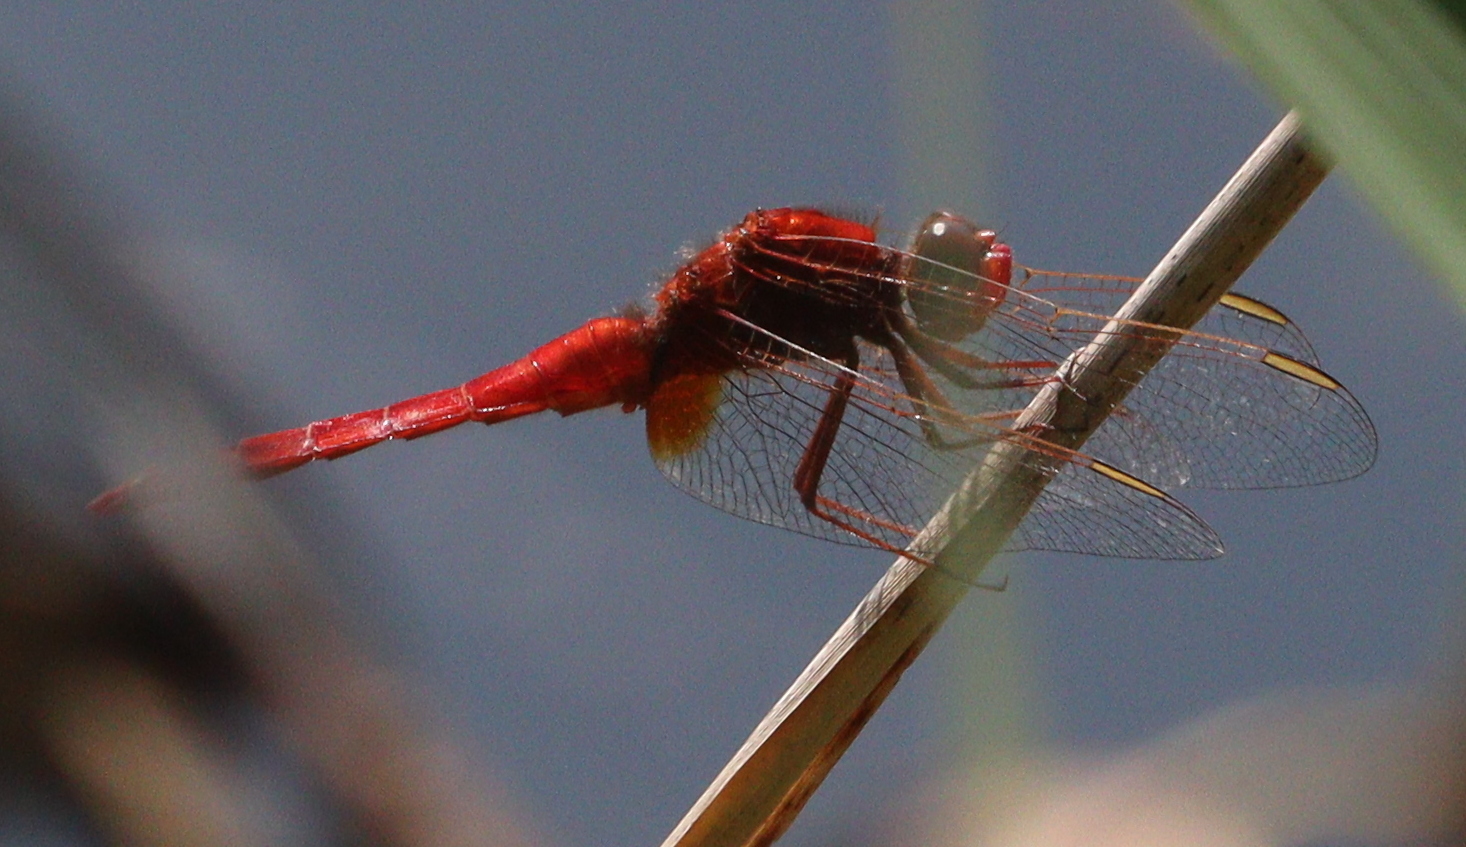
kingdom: Animalia
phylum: Arthropoda
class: Insecta
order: Odonata
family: Libellulidae
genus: Crocothemis
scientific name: Crocothemis erythraea
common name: Scarlet dragonfly
